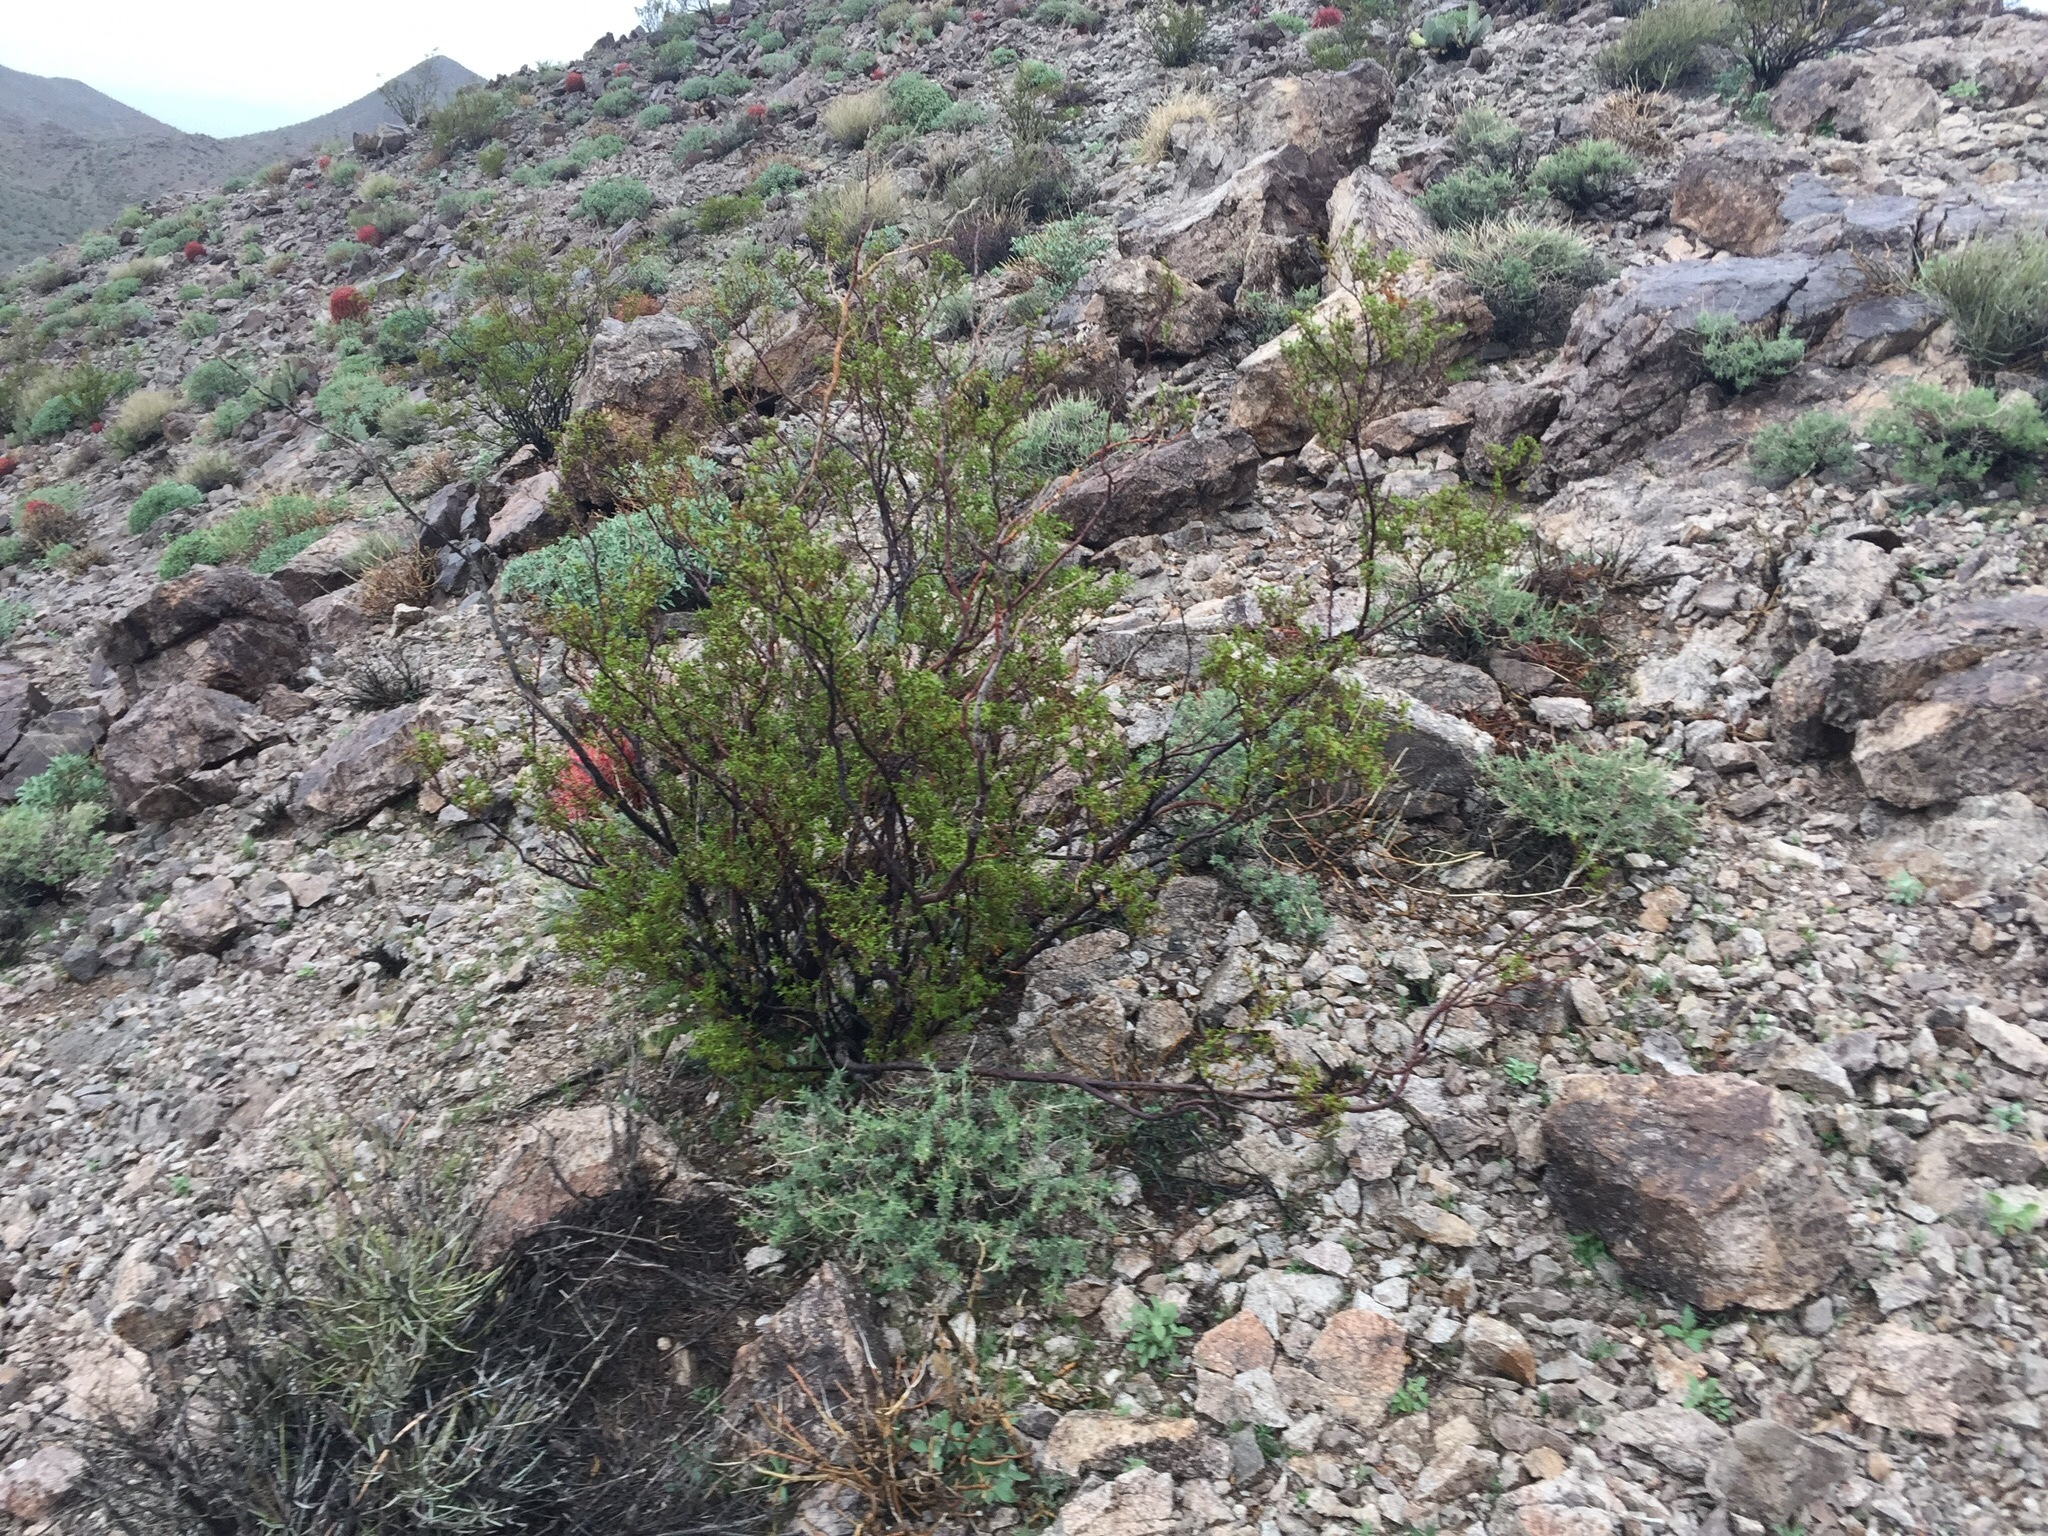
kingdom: Plantae
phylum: Tracheophyta
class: Magnoliopsida
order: Zygophyllales
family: Zygophyllaceae
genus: Larrea
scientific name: Larrea tridentata
